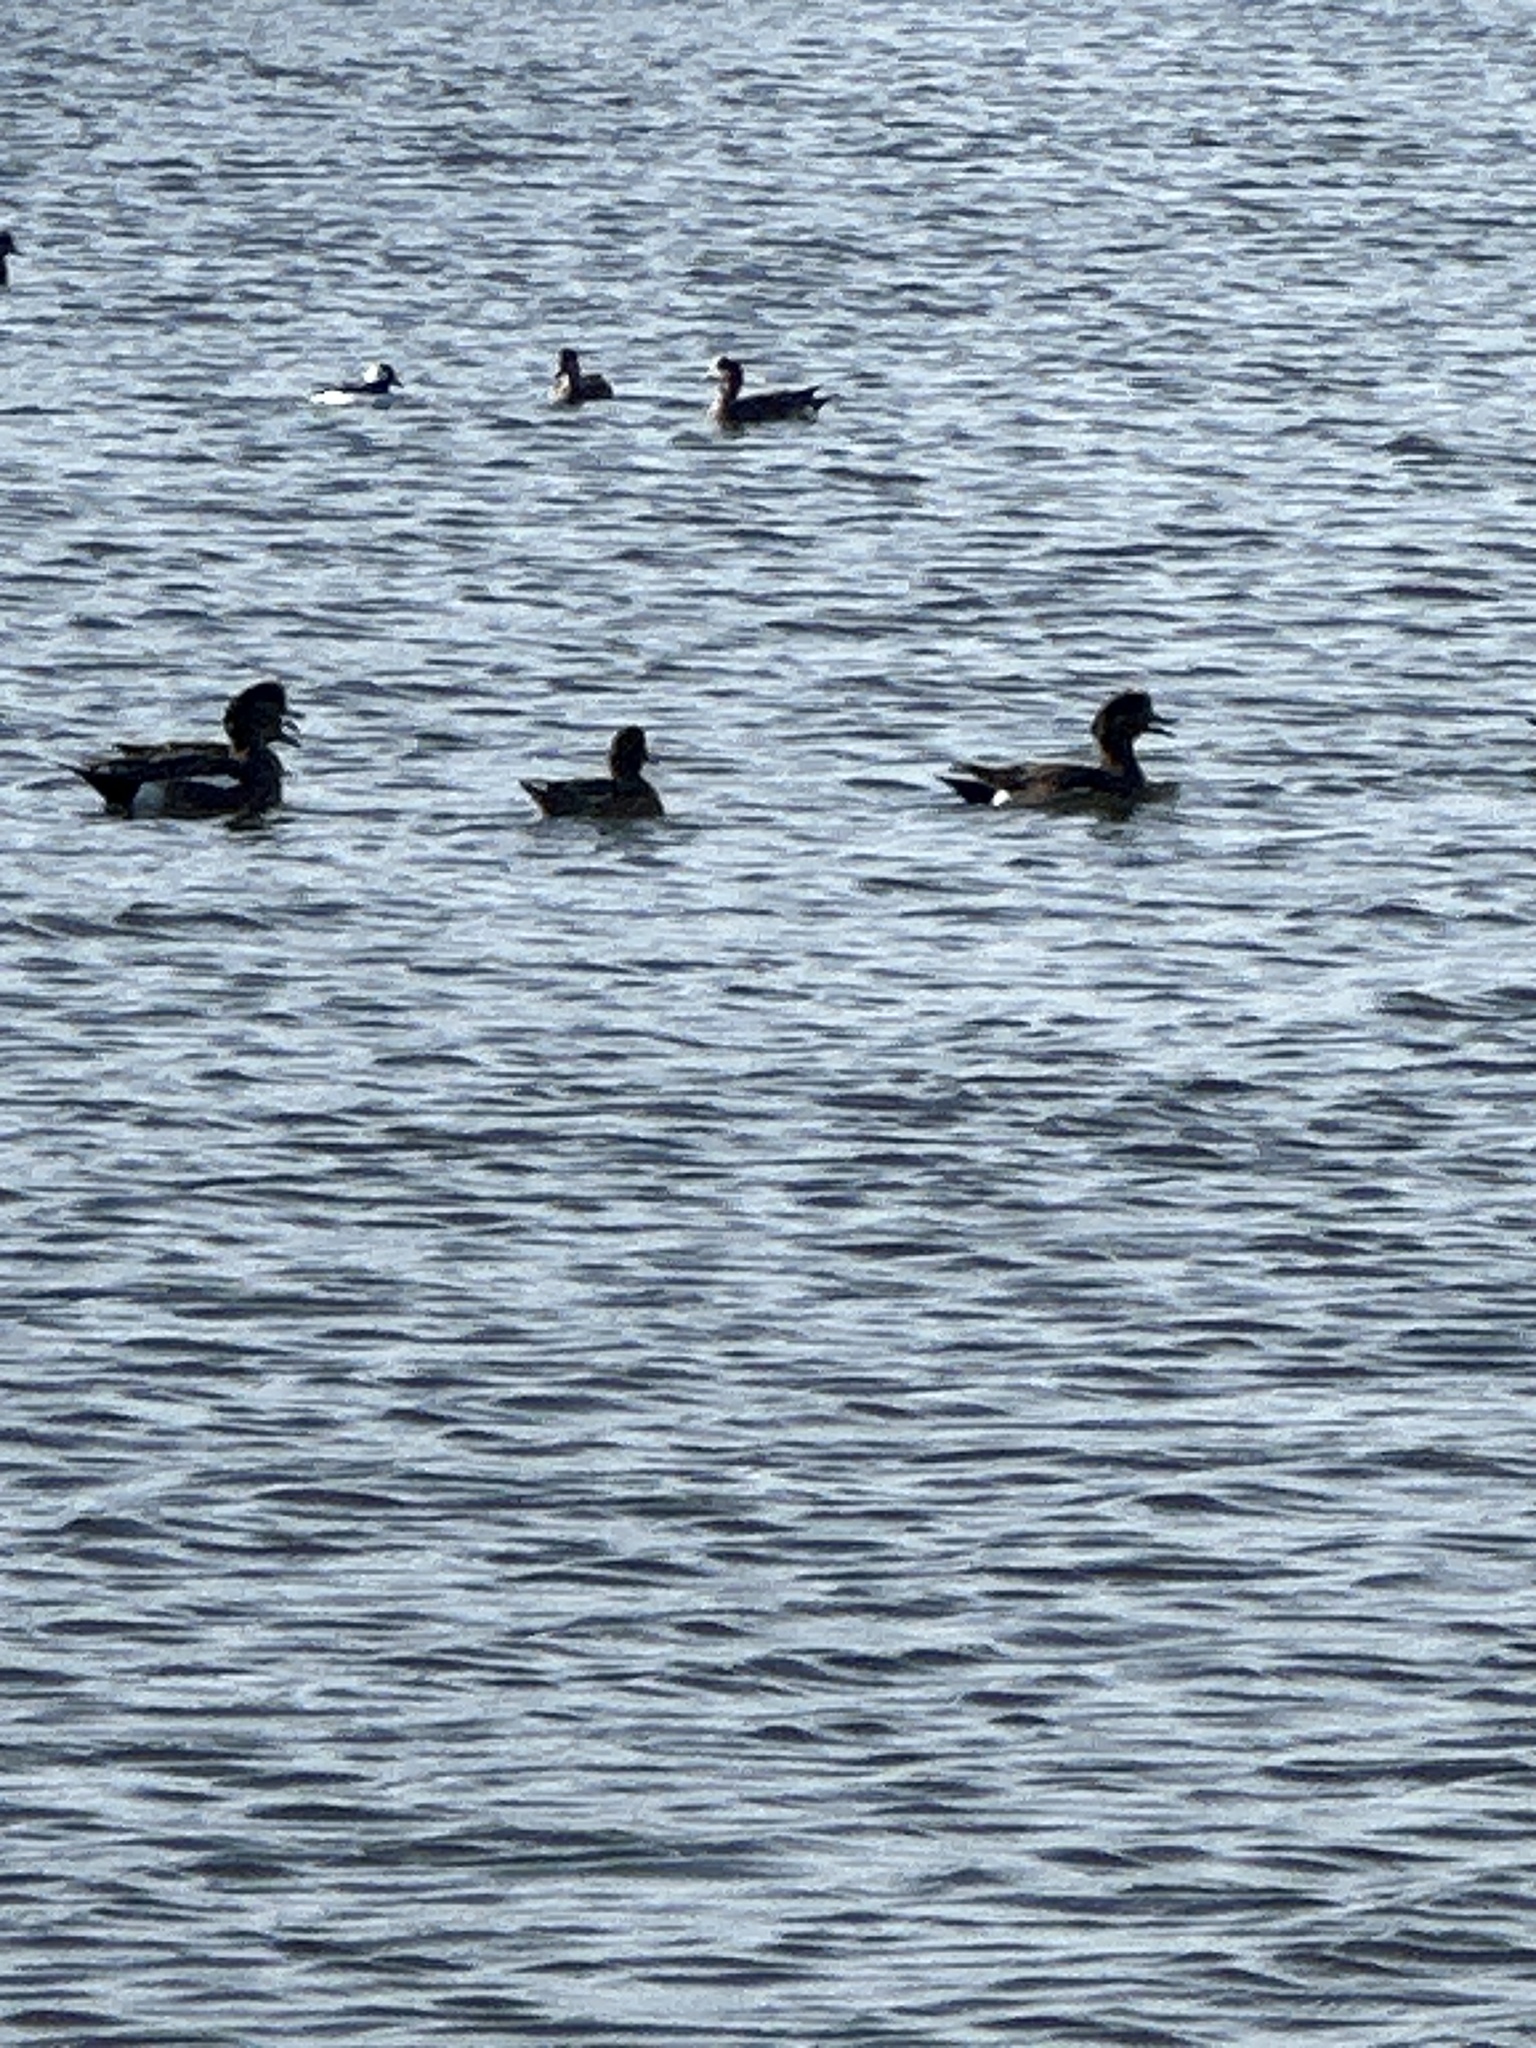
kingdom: Animalia
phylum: Chordata
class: Aves
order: Anseriformes
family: Anatidae
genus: Mareca
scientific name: Mareca americana
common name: American wigeon
